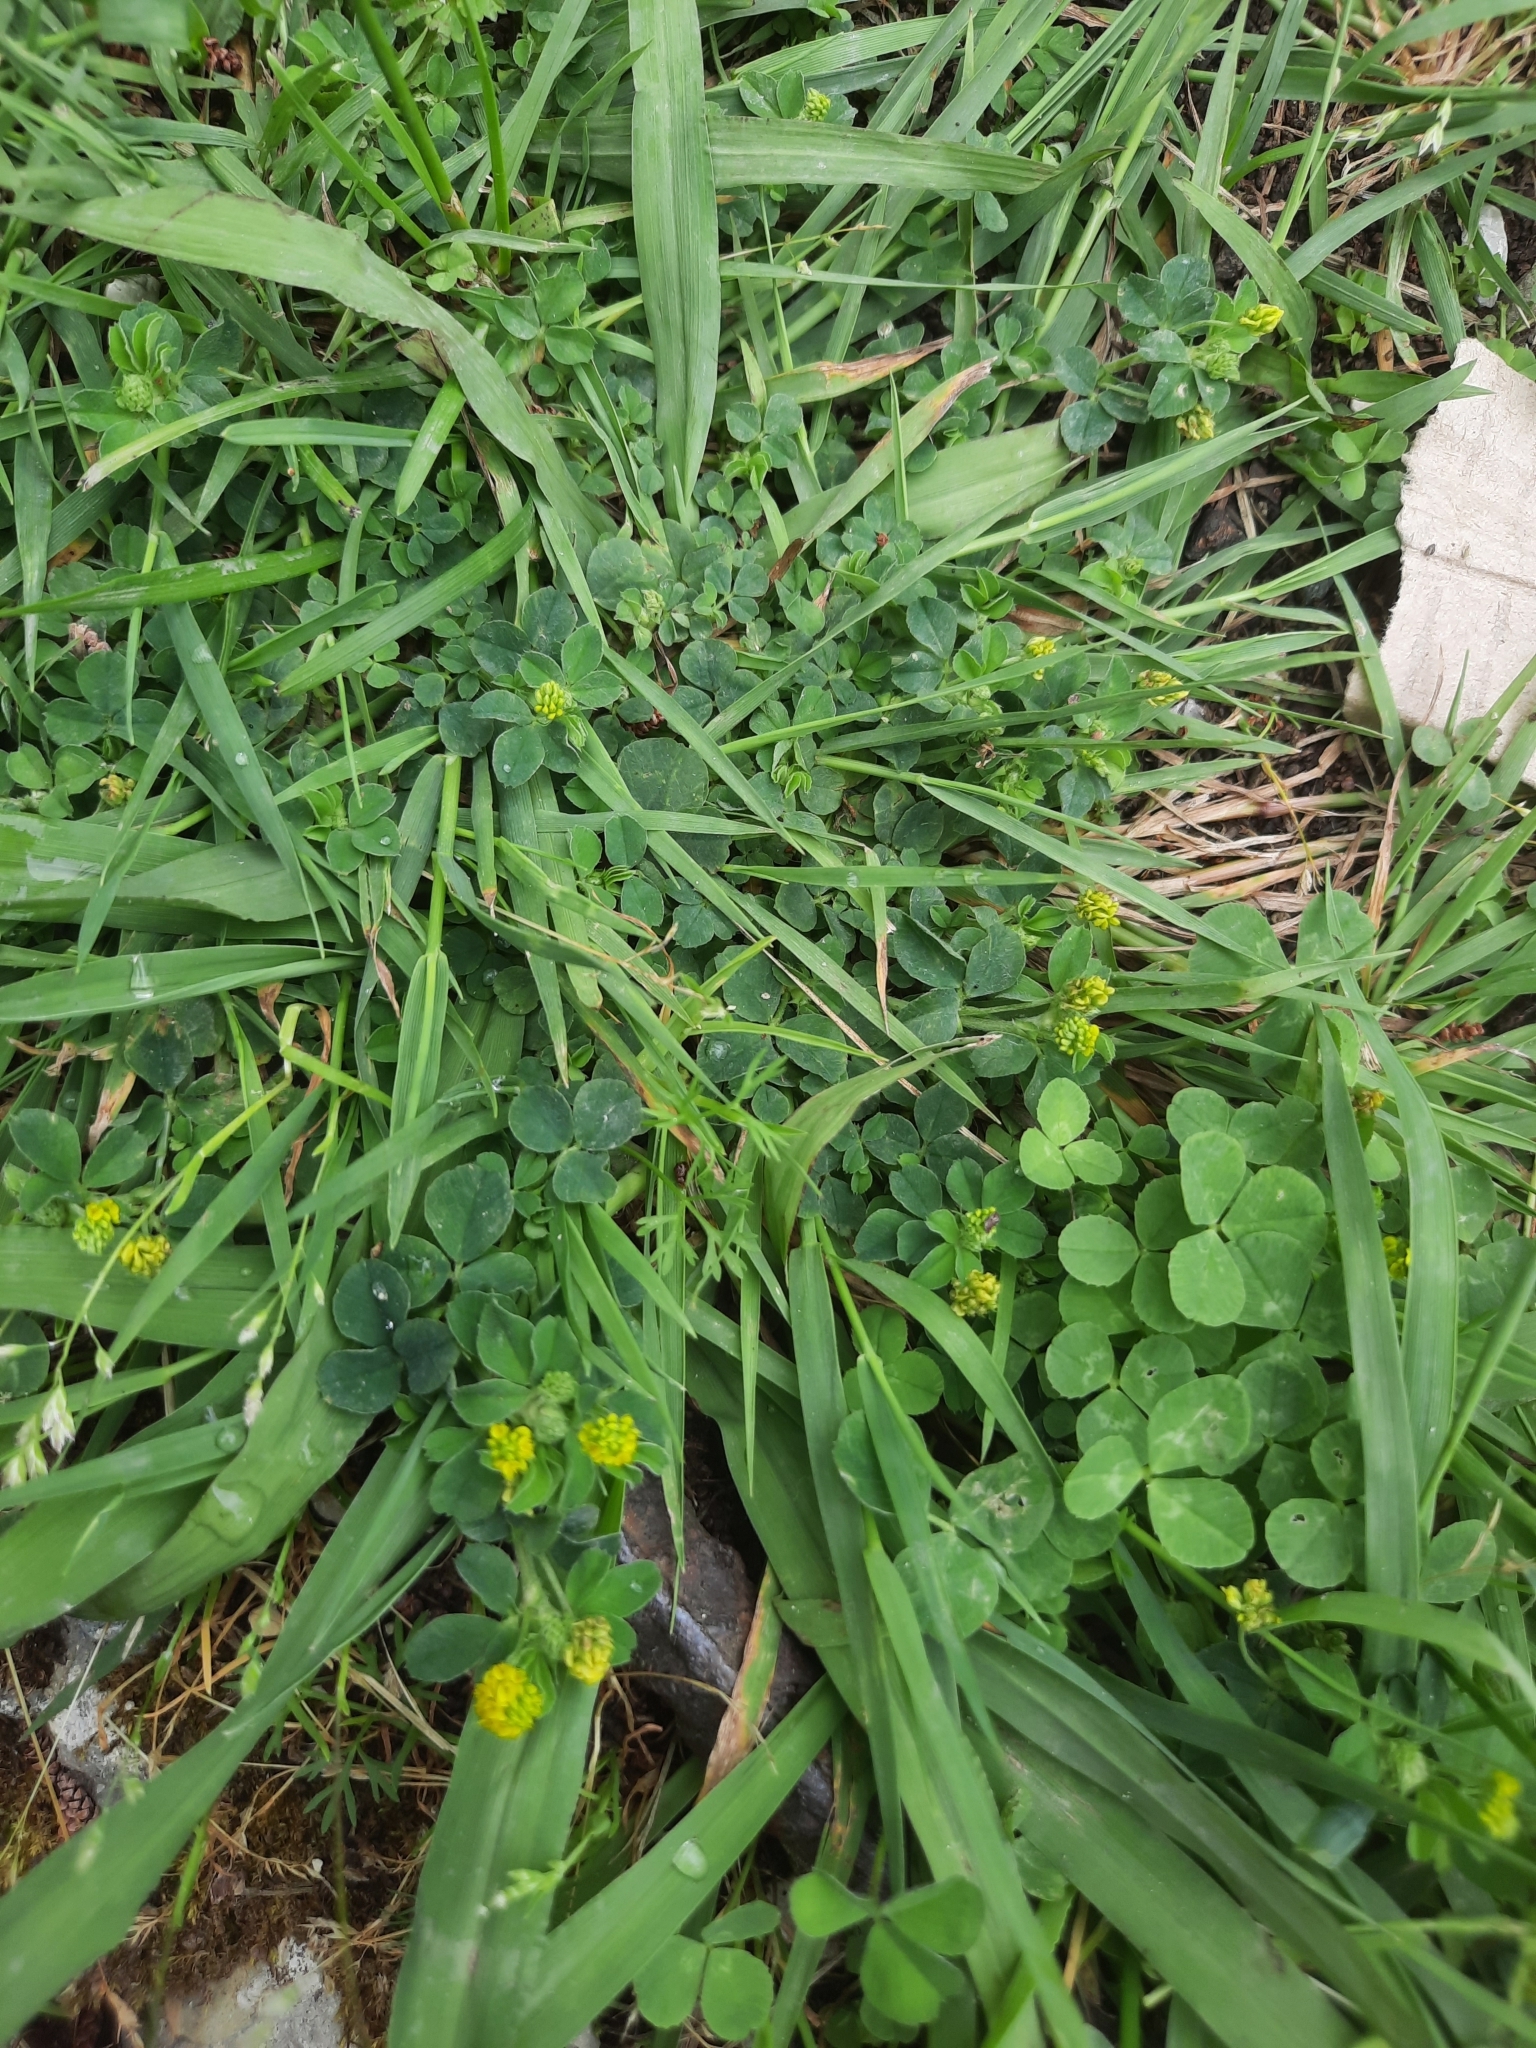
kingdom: Plantae
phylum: Tracheophyta
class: Magnoliopsida
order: Fabales
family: Fabaceae
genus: Medicago
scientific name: Medicago lupulina
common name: Black medick
